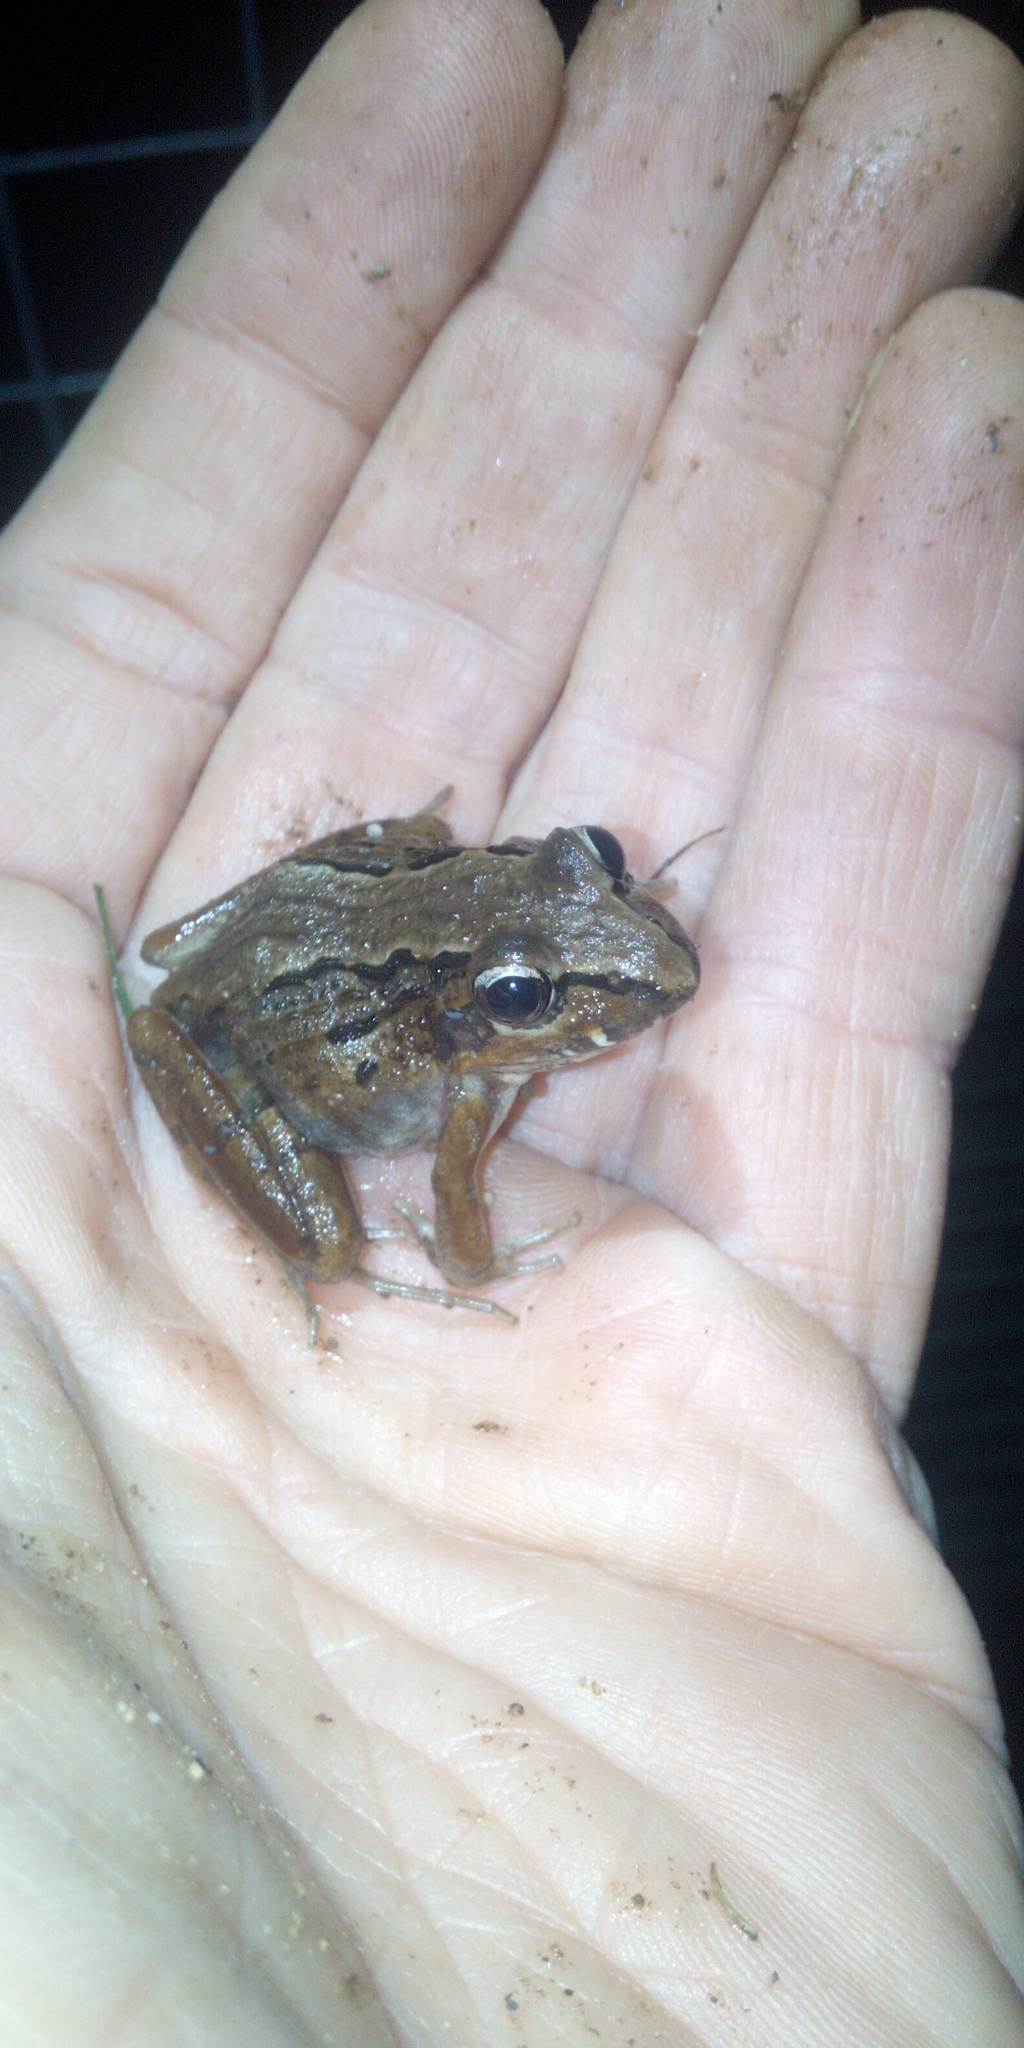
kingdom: Animalia
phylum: Chordata
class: Amphibia
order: Anura
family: Pyxicephalidae
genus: Strongylopus
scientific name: Strongylopus grayii
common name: Gray's stream frog
